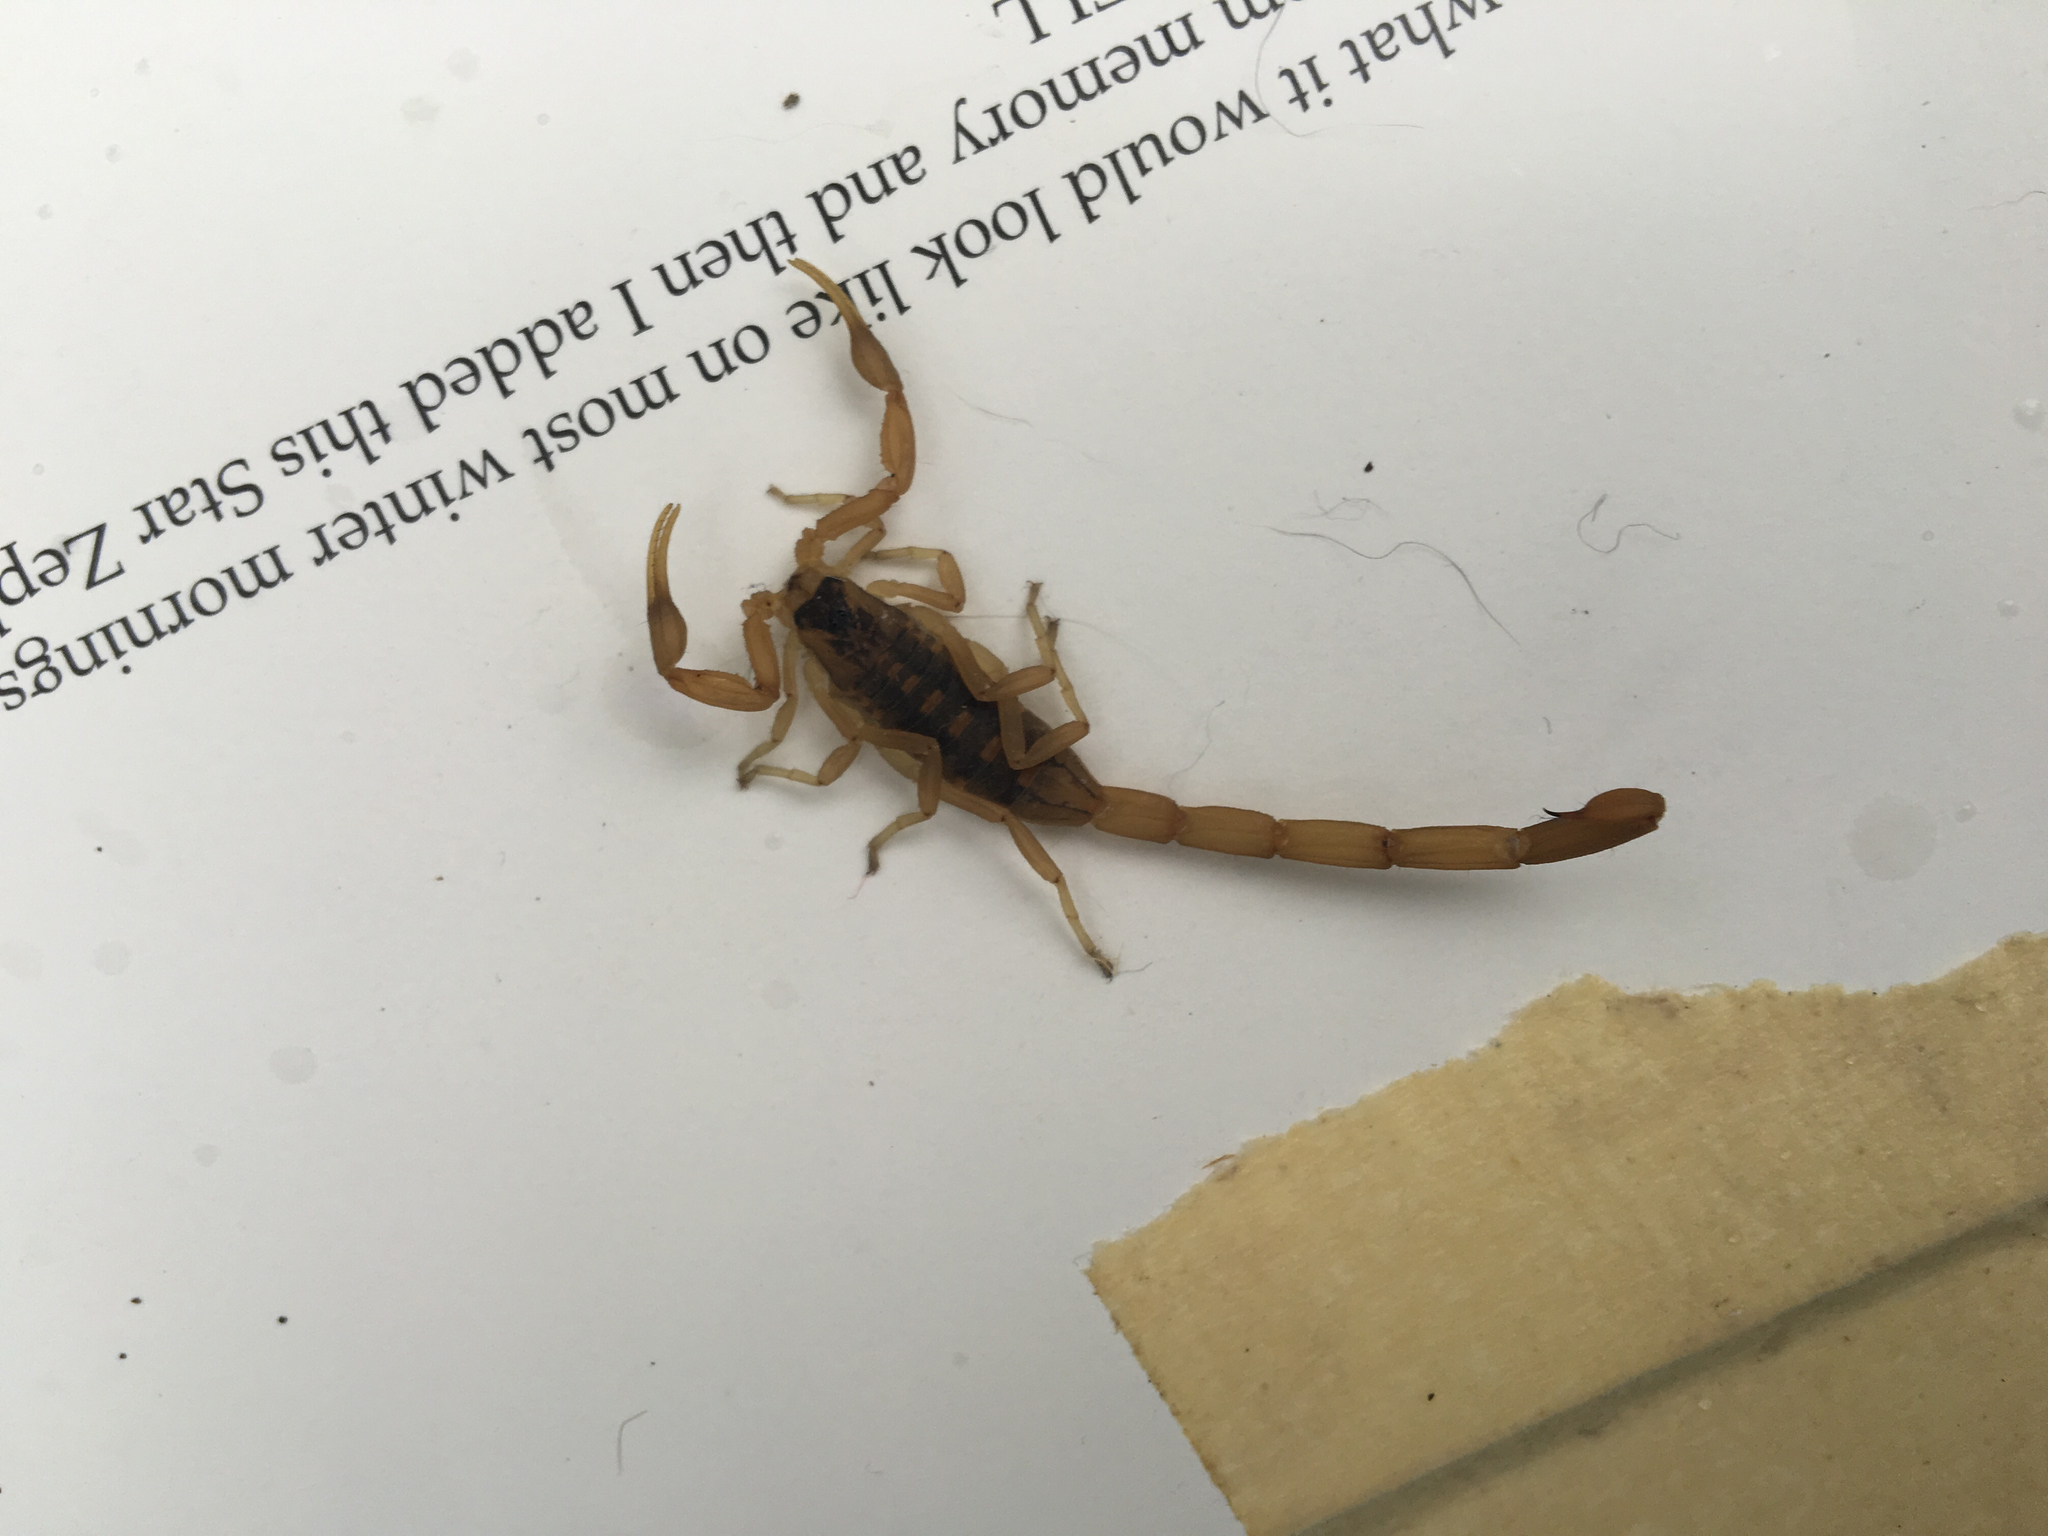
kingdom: Animalia
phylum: Arthropoda
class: Arachnida
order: Scorpiones
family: Buthidae
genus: Centruroides
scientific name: Centruroides vittatus
